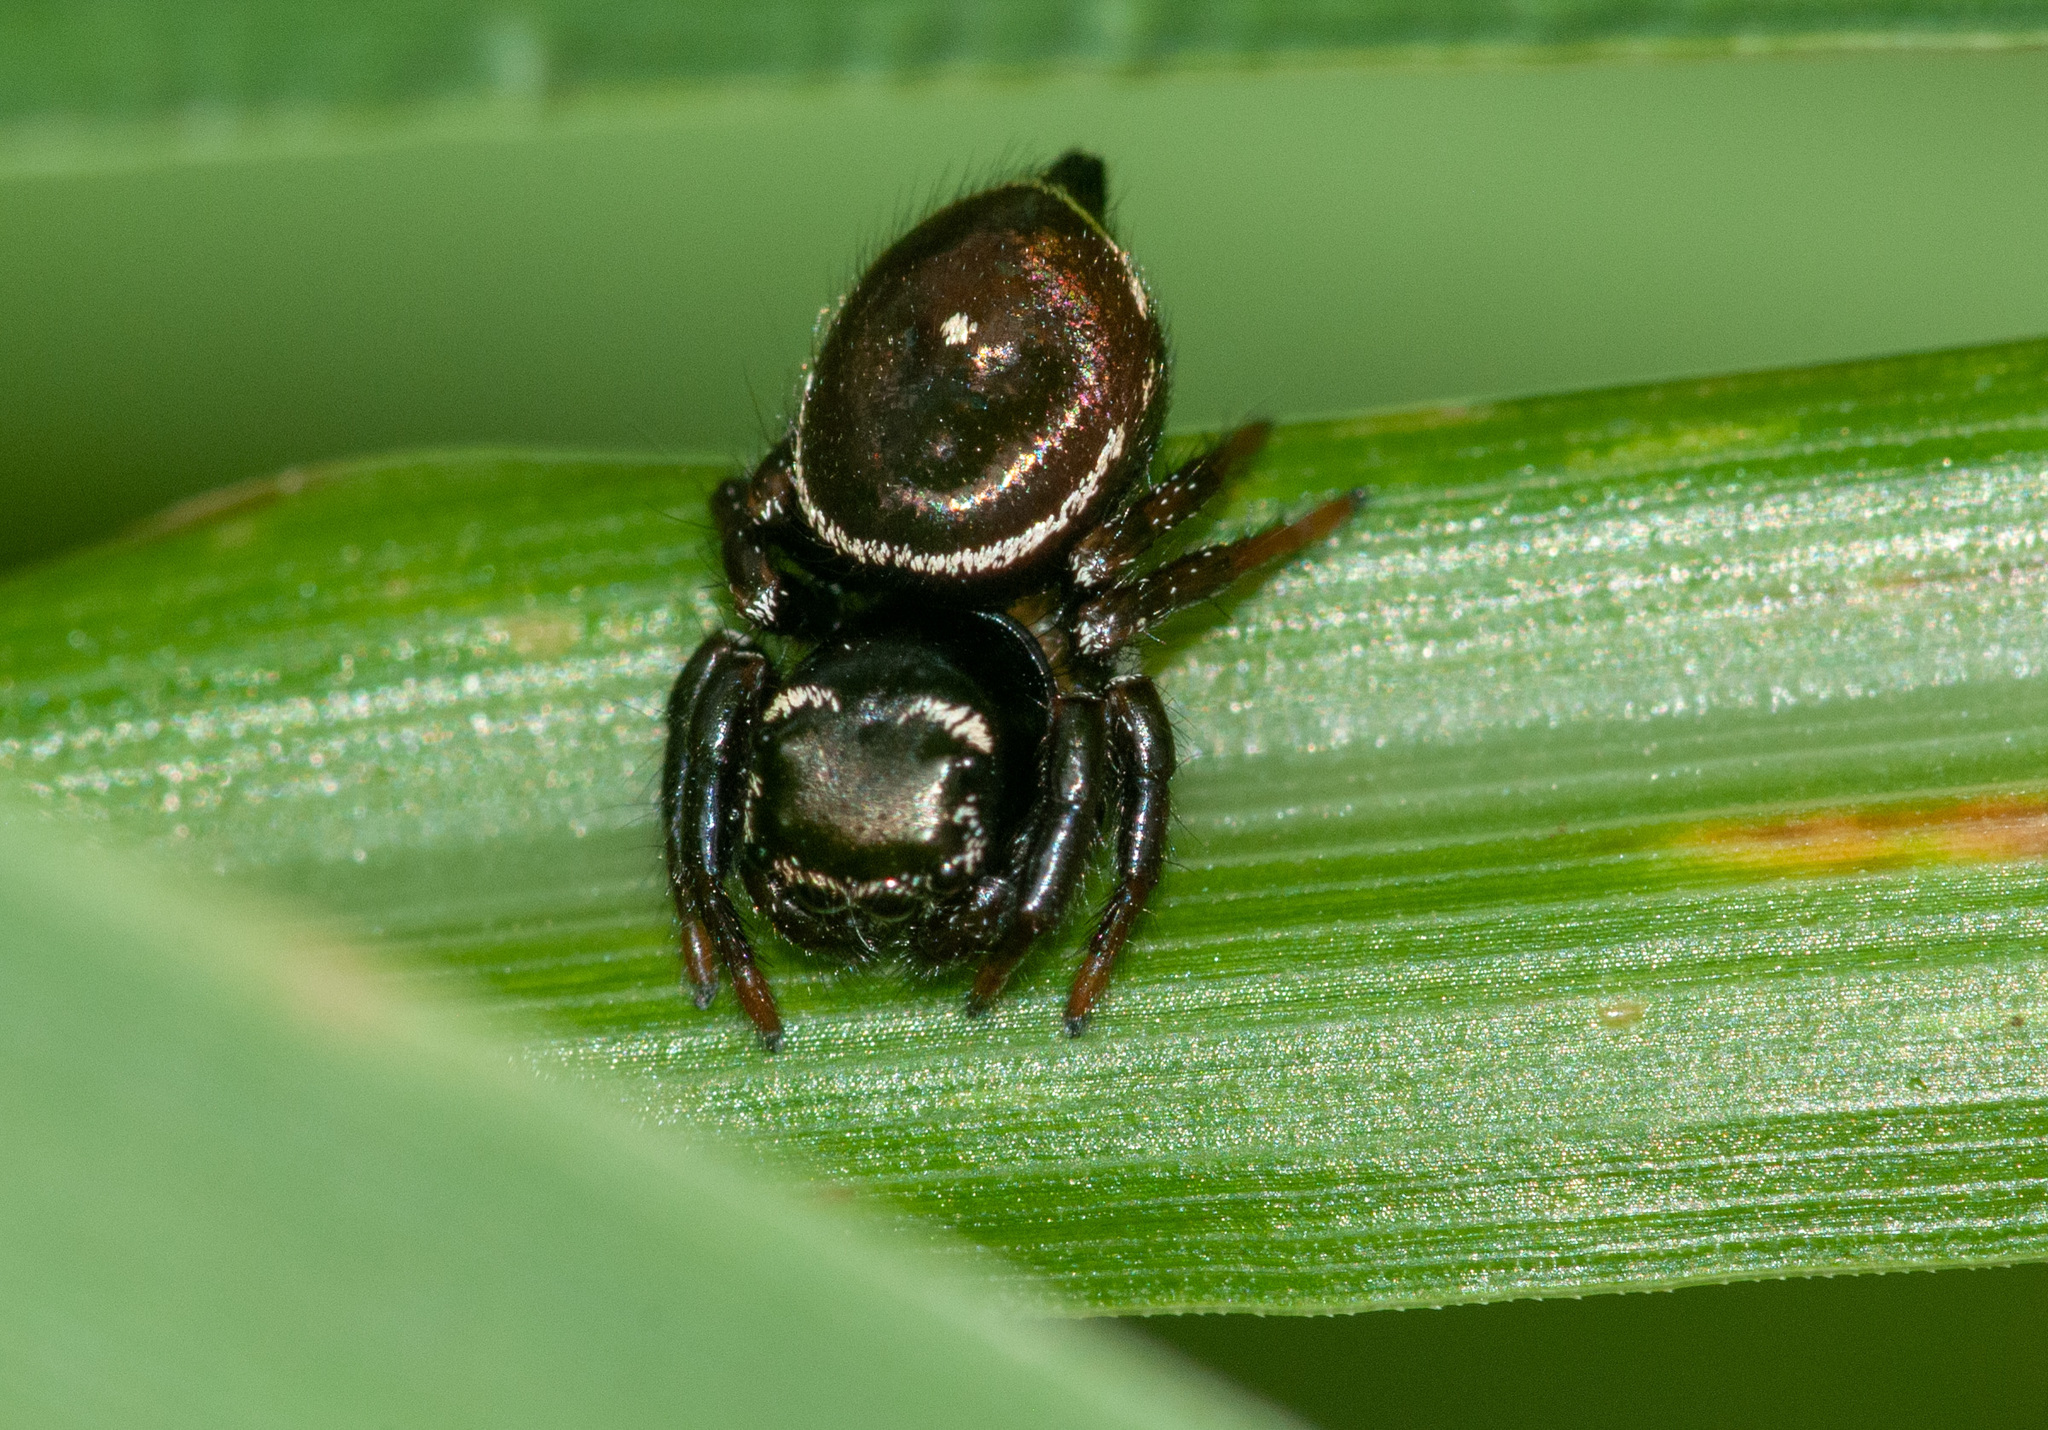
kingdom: Animalia
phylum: Arthropoda
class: Arachnida
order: Araneae
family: Salticidae
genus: Zenodorus
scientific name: Zenodorus orbiculatus
